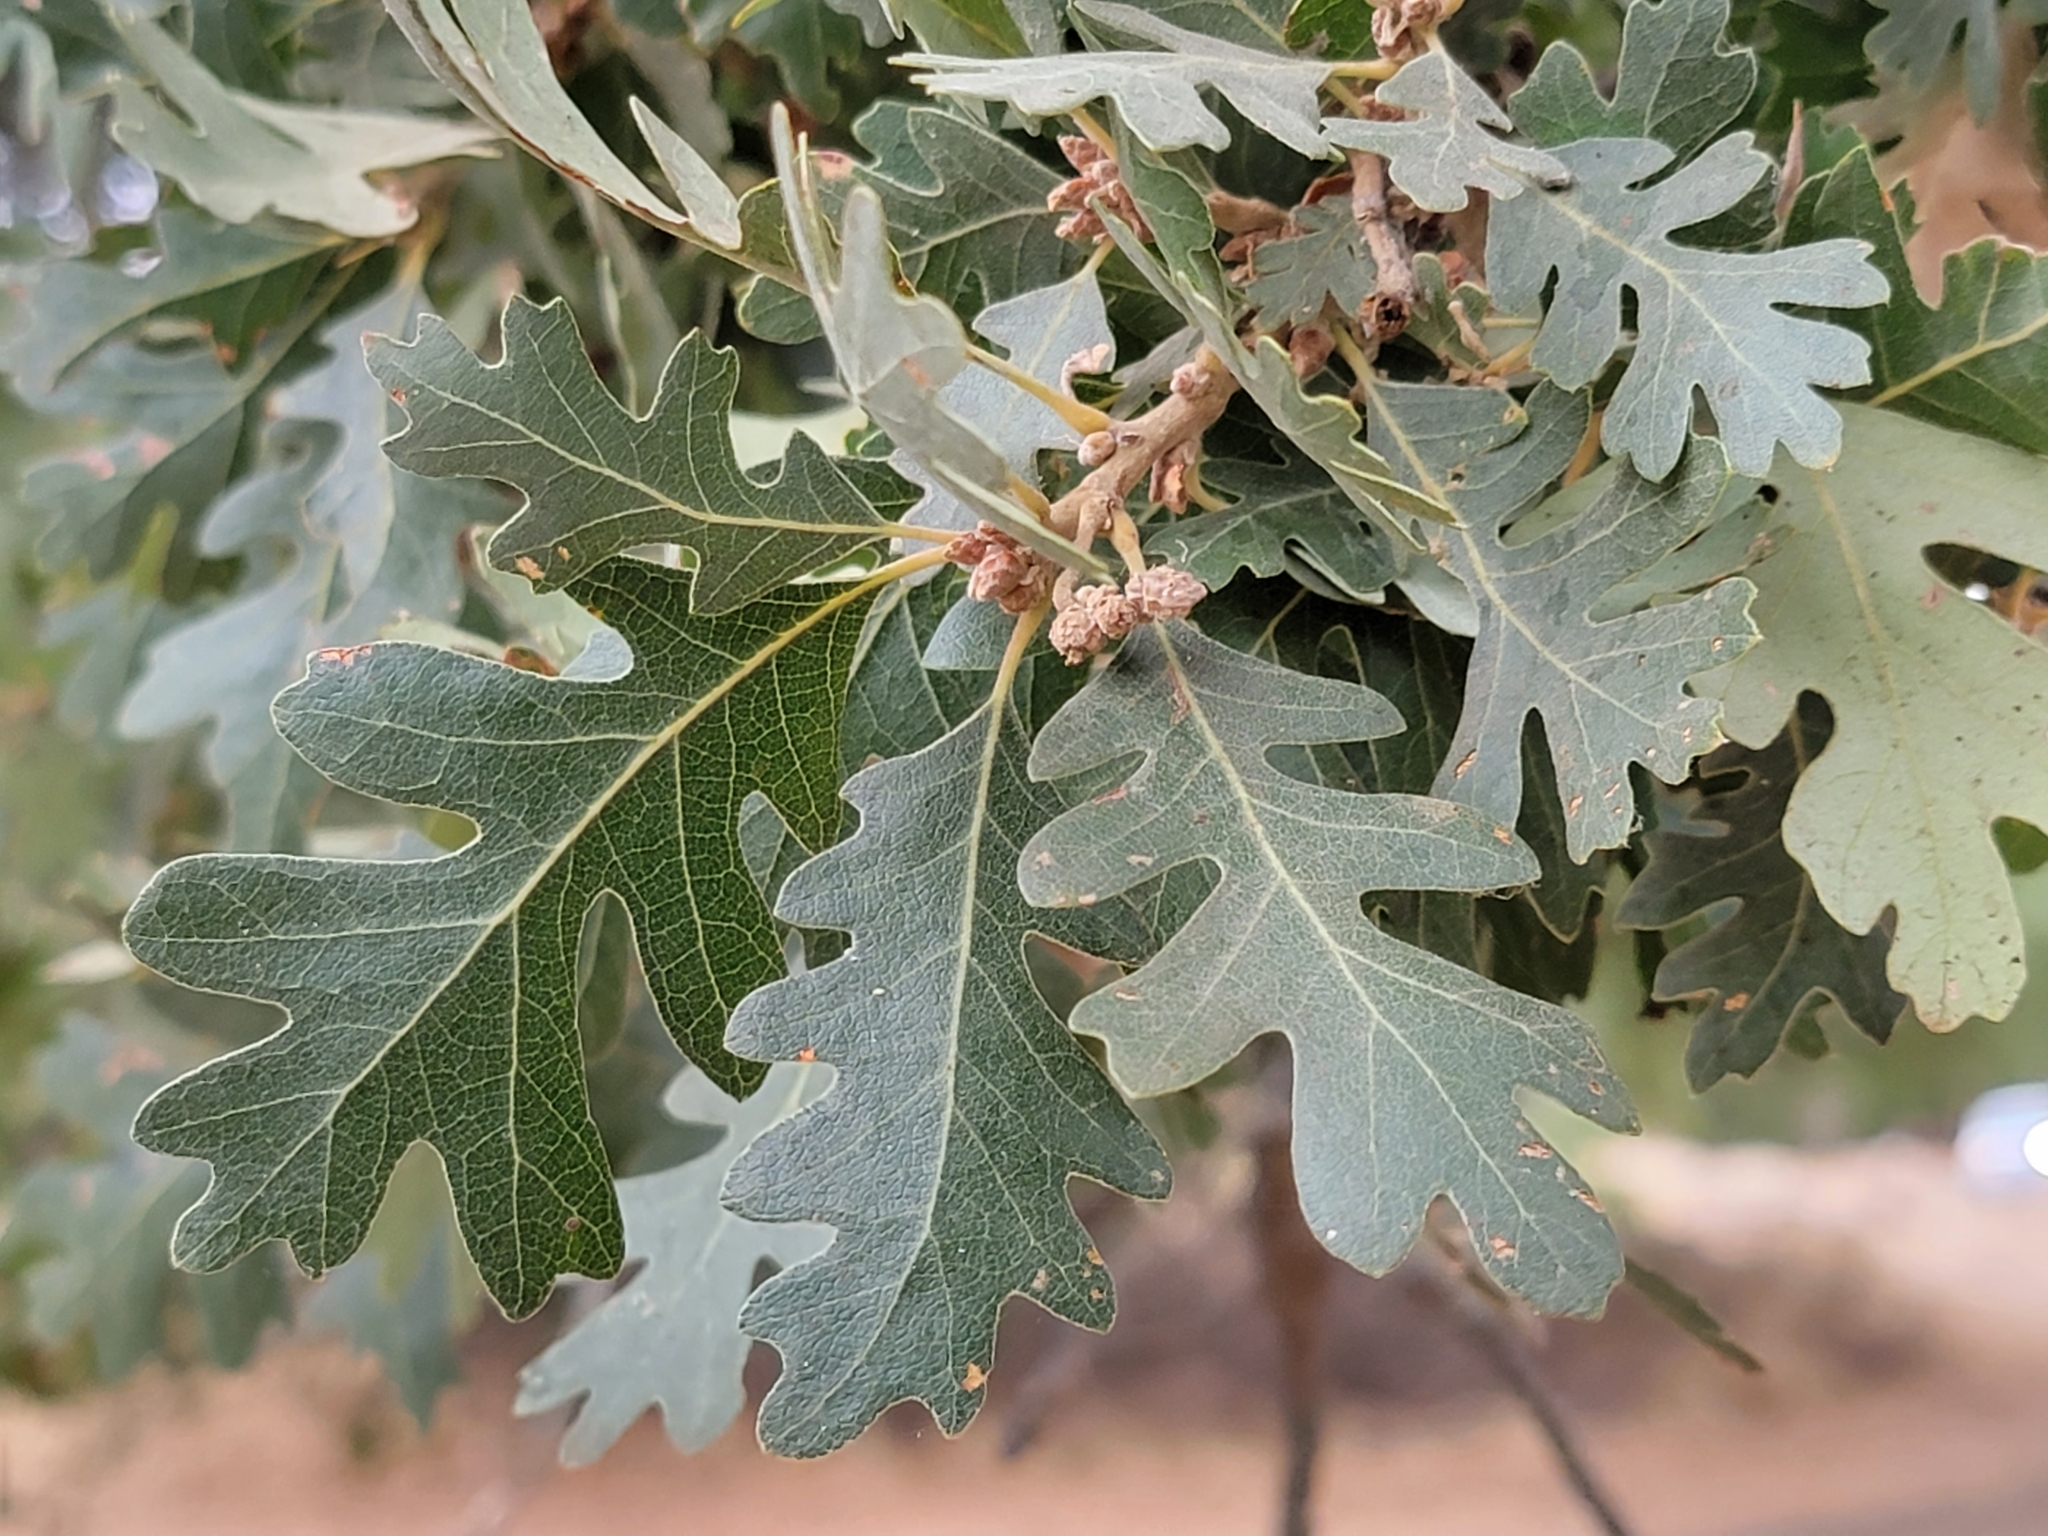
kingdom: Plantae
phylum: Tracheophyta
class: Magnoliopsida
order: Fagales
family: Fagaceae
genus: Quercus
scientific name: Quercus lobata
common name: Valley oak
